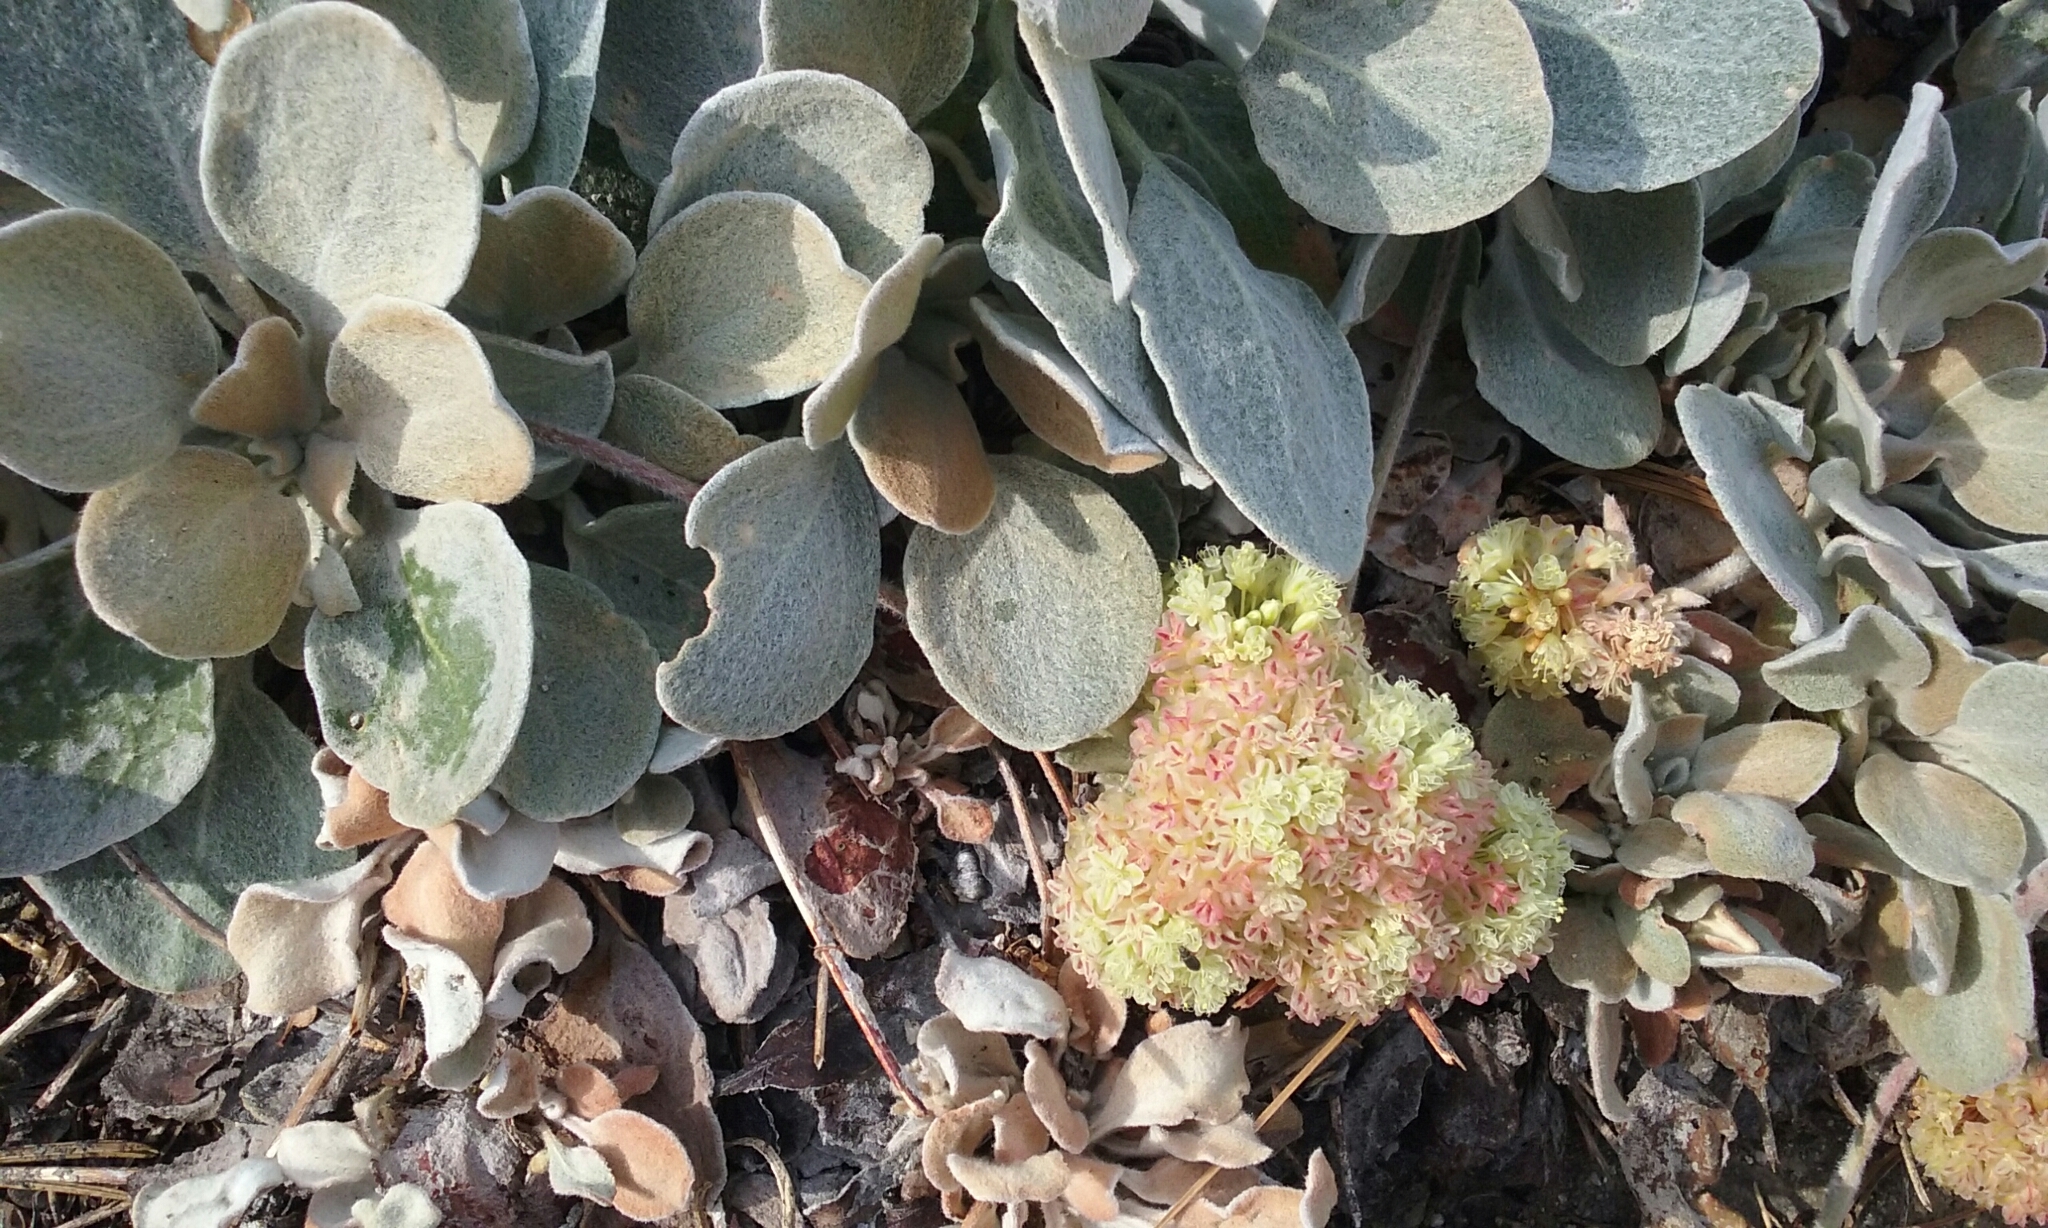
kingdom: Plantae
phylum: Tracheophyta
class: Magnoliopsida
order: Caryophyllales
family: Polygonaceae
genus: Eriogonum
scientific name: Eriogonum lobbii
